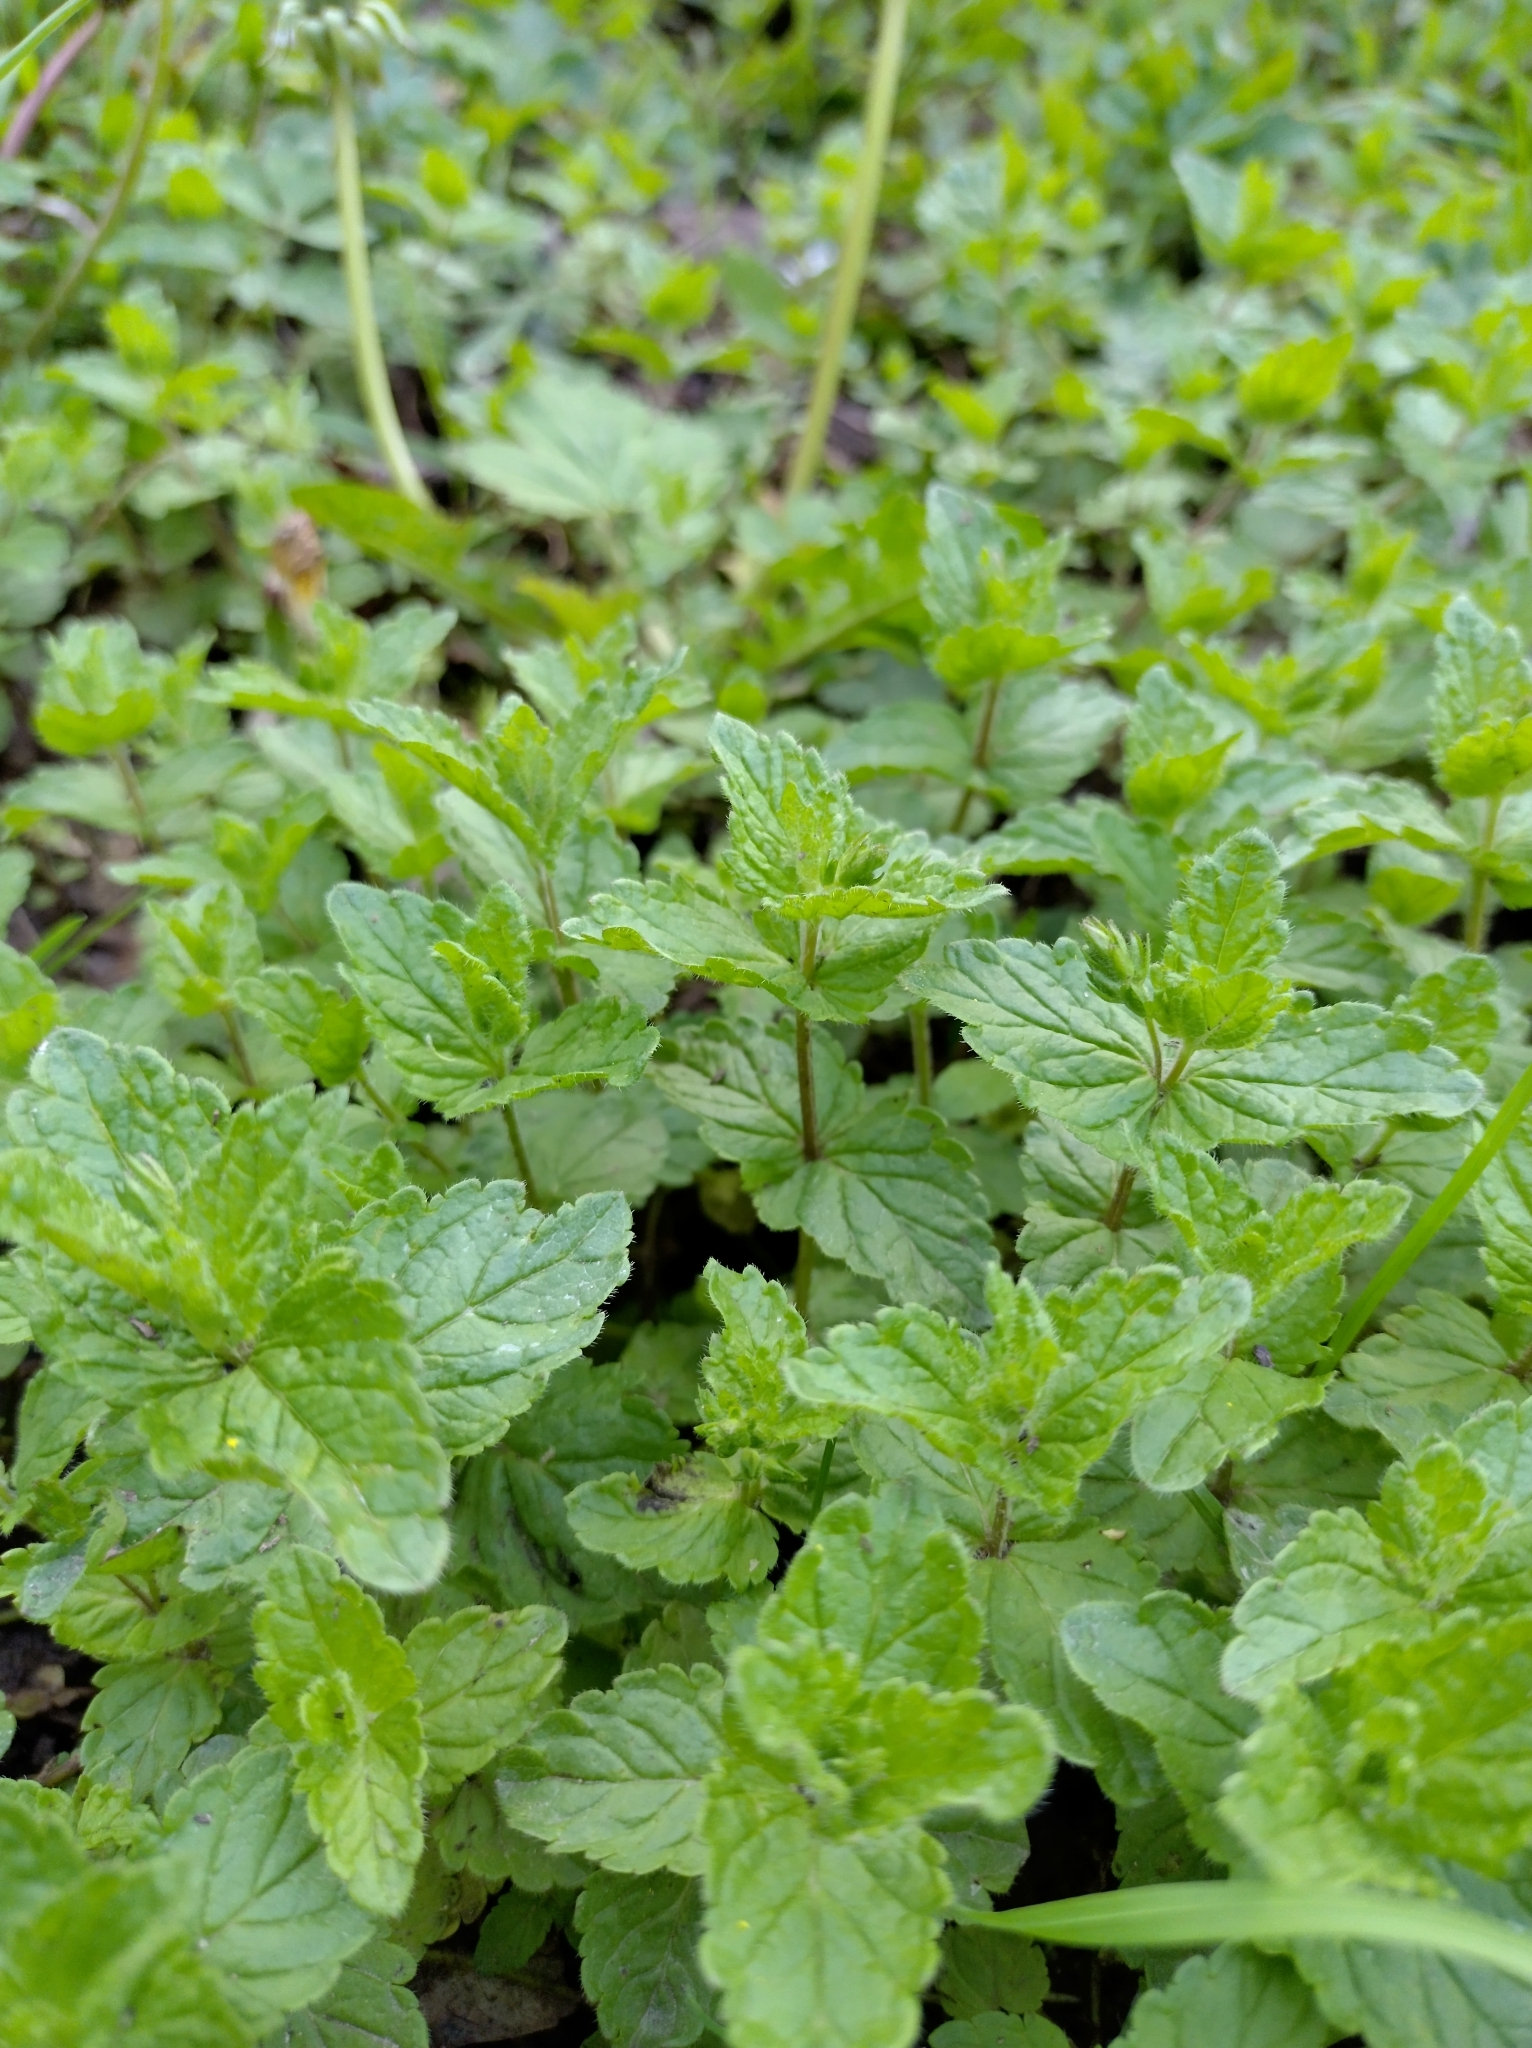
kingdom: Plantae
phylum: Tracheophyta
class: Magnoliopsida
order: Lamiales
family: Plantaginaceae
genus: Veronica
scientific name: Veronica chamaedrys
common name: Germander speedwell
